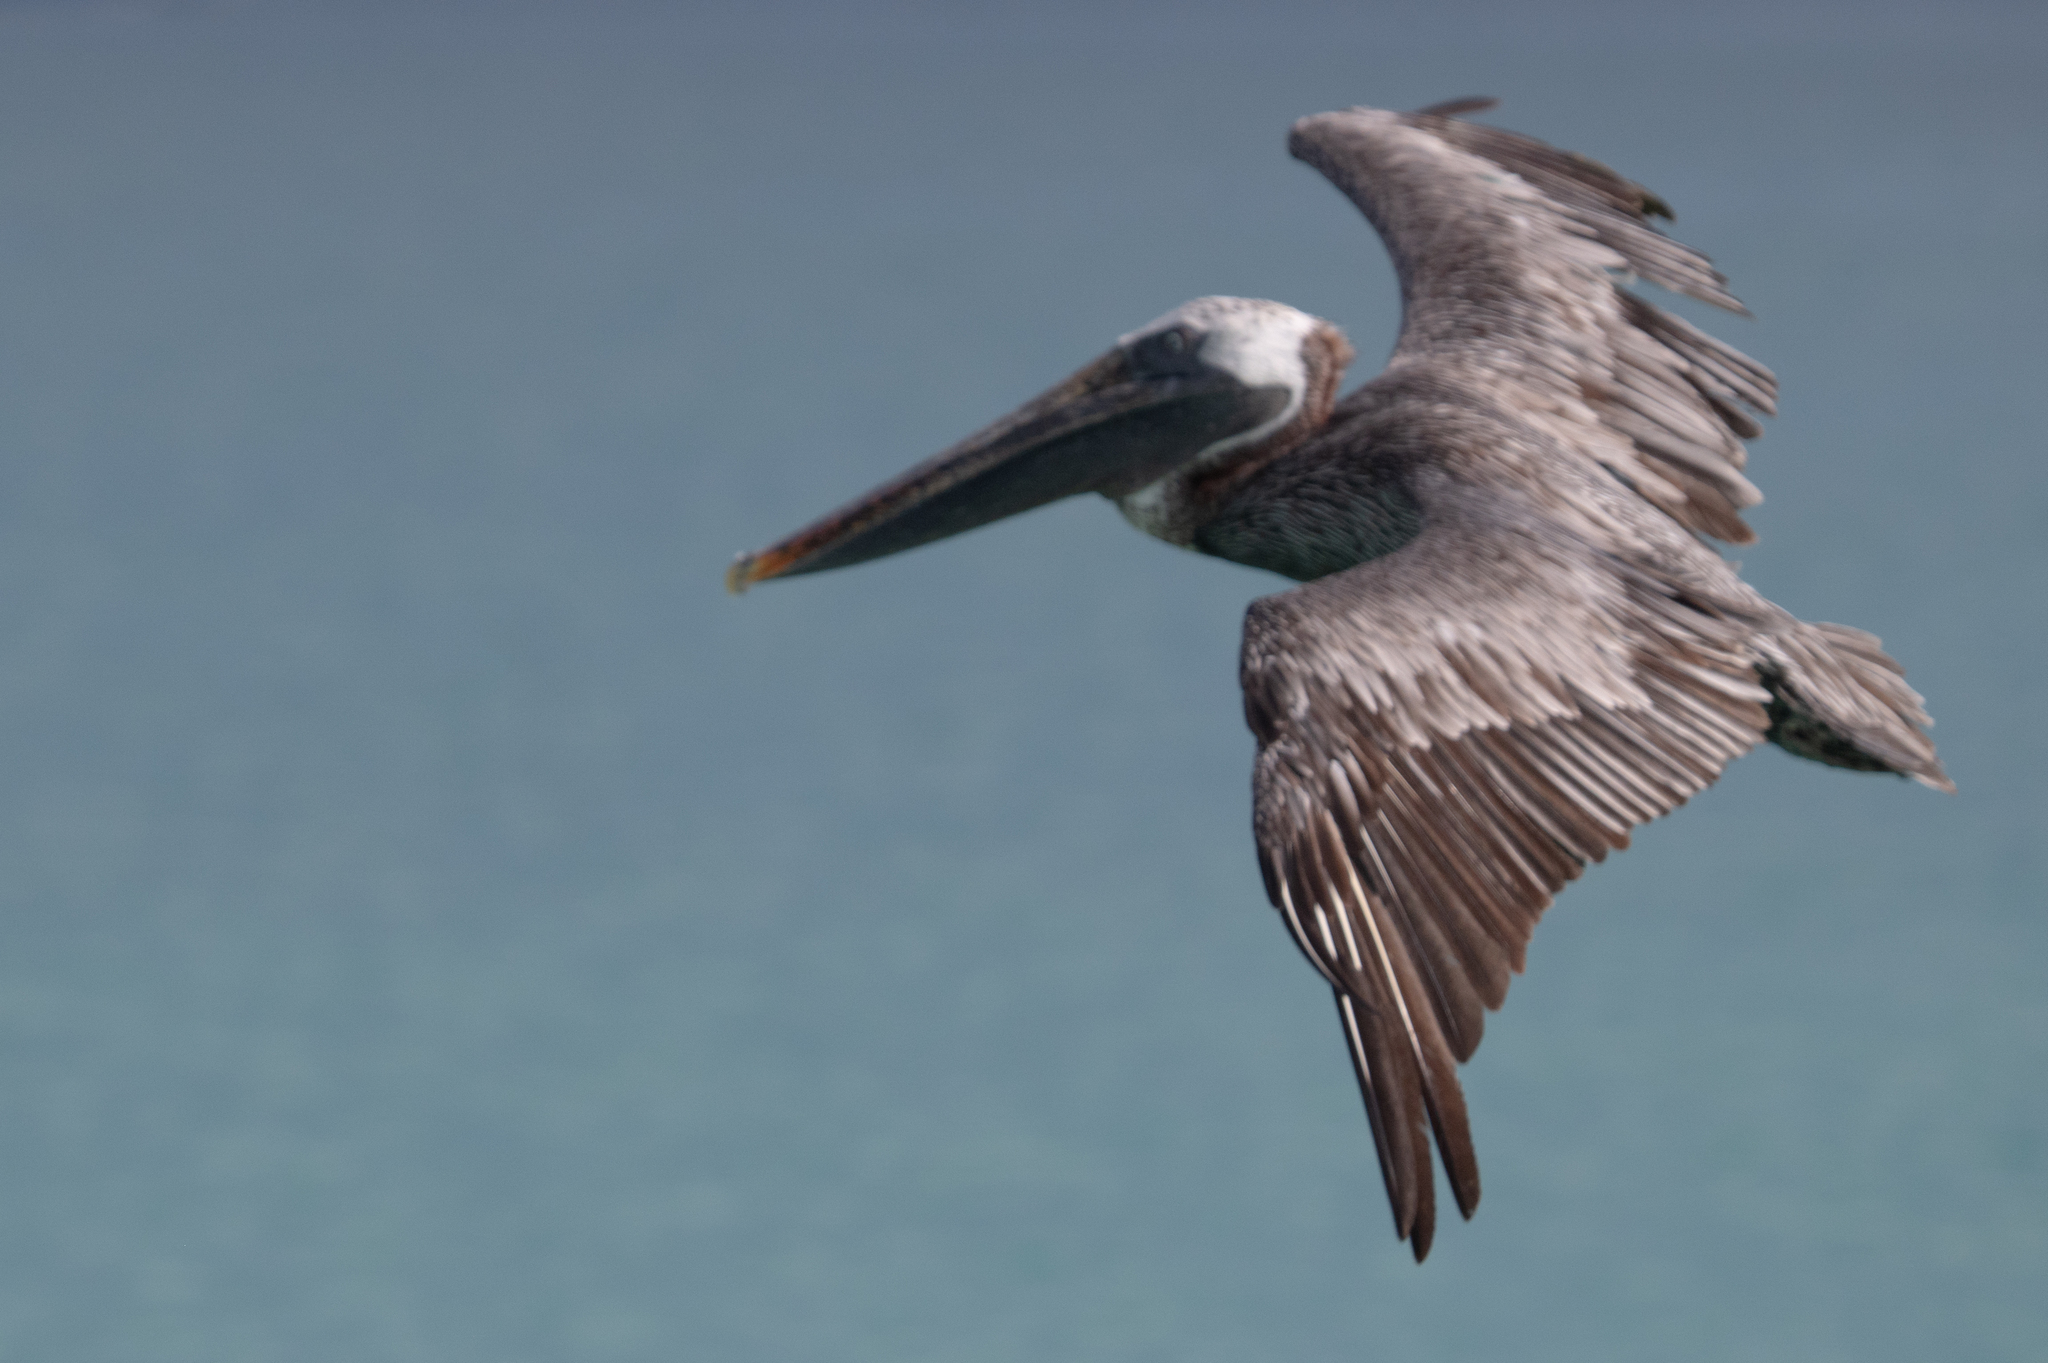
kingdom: Animalia
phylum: Chordata
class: Aves
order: Pelecaniformes
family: Pelecanidae
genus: Pelecanus
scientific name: Pelecanus occidentalis
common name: Brown pelican
